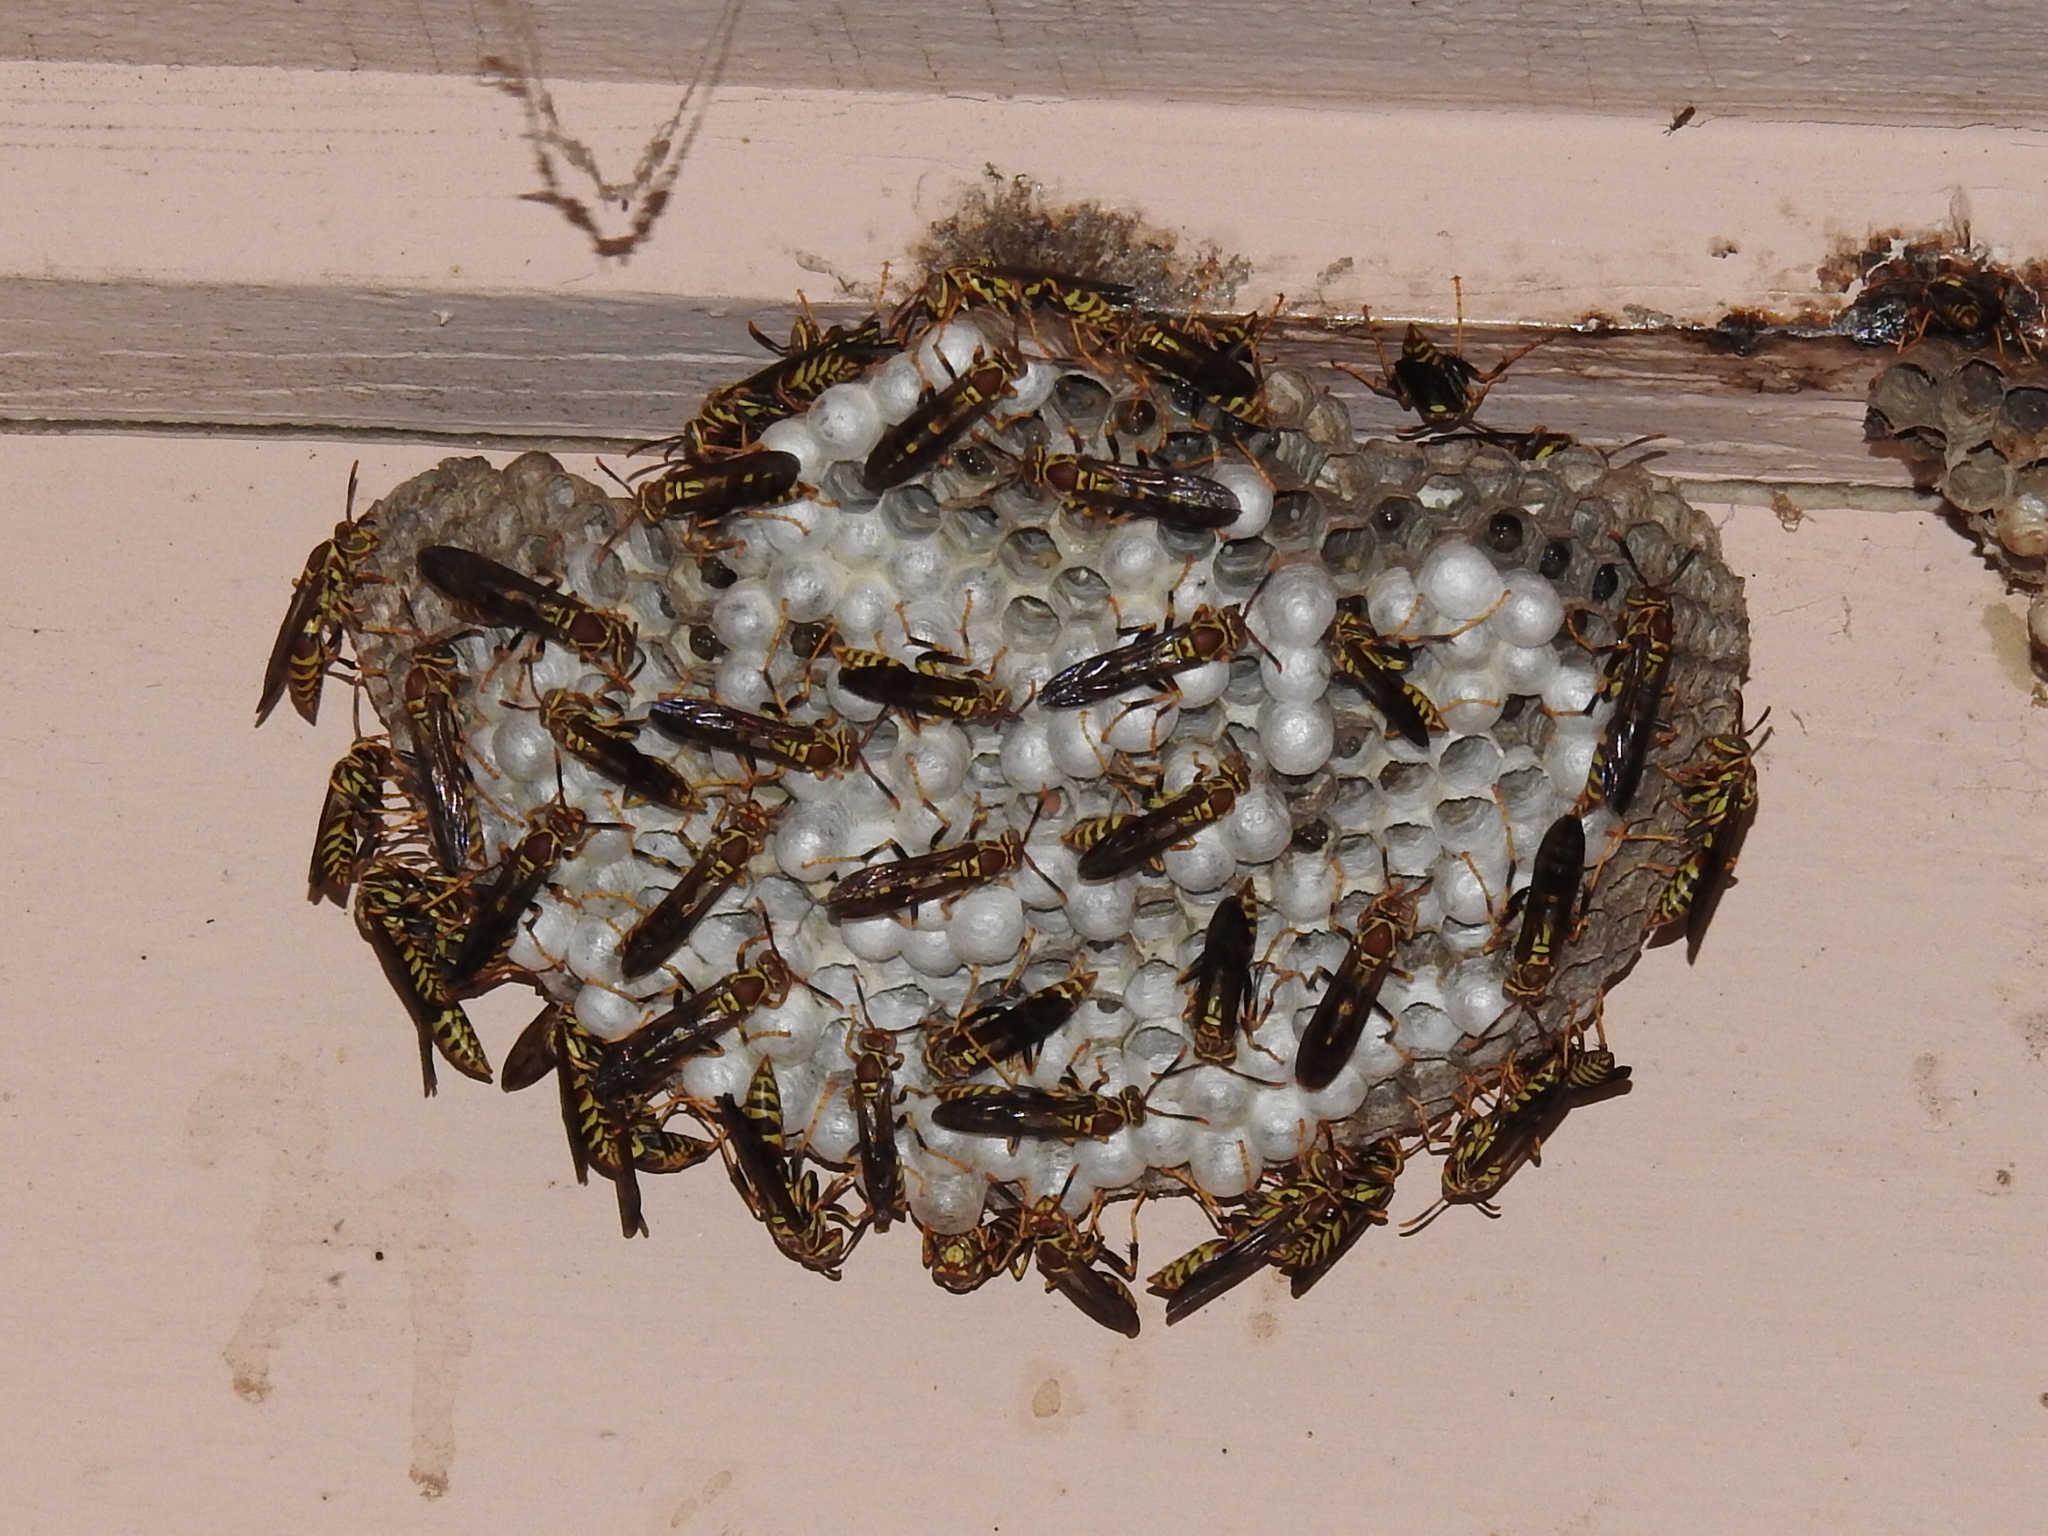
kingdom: Animalia
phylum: Arthropoda
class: Insecta
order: Hymenoptera
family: Eumenidae
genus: Polistes
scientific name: Polistes exclamans
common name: Paper wasp
